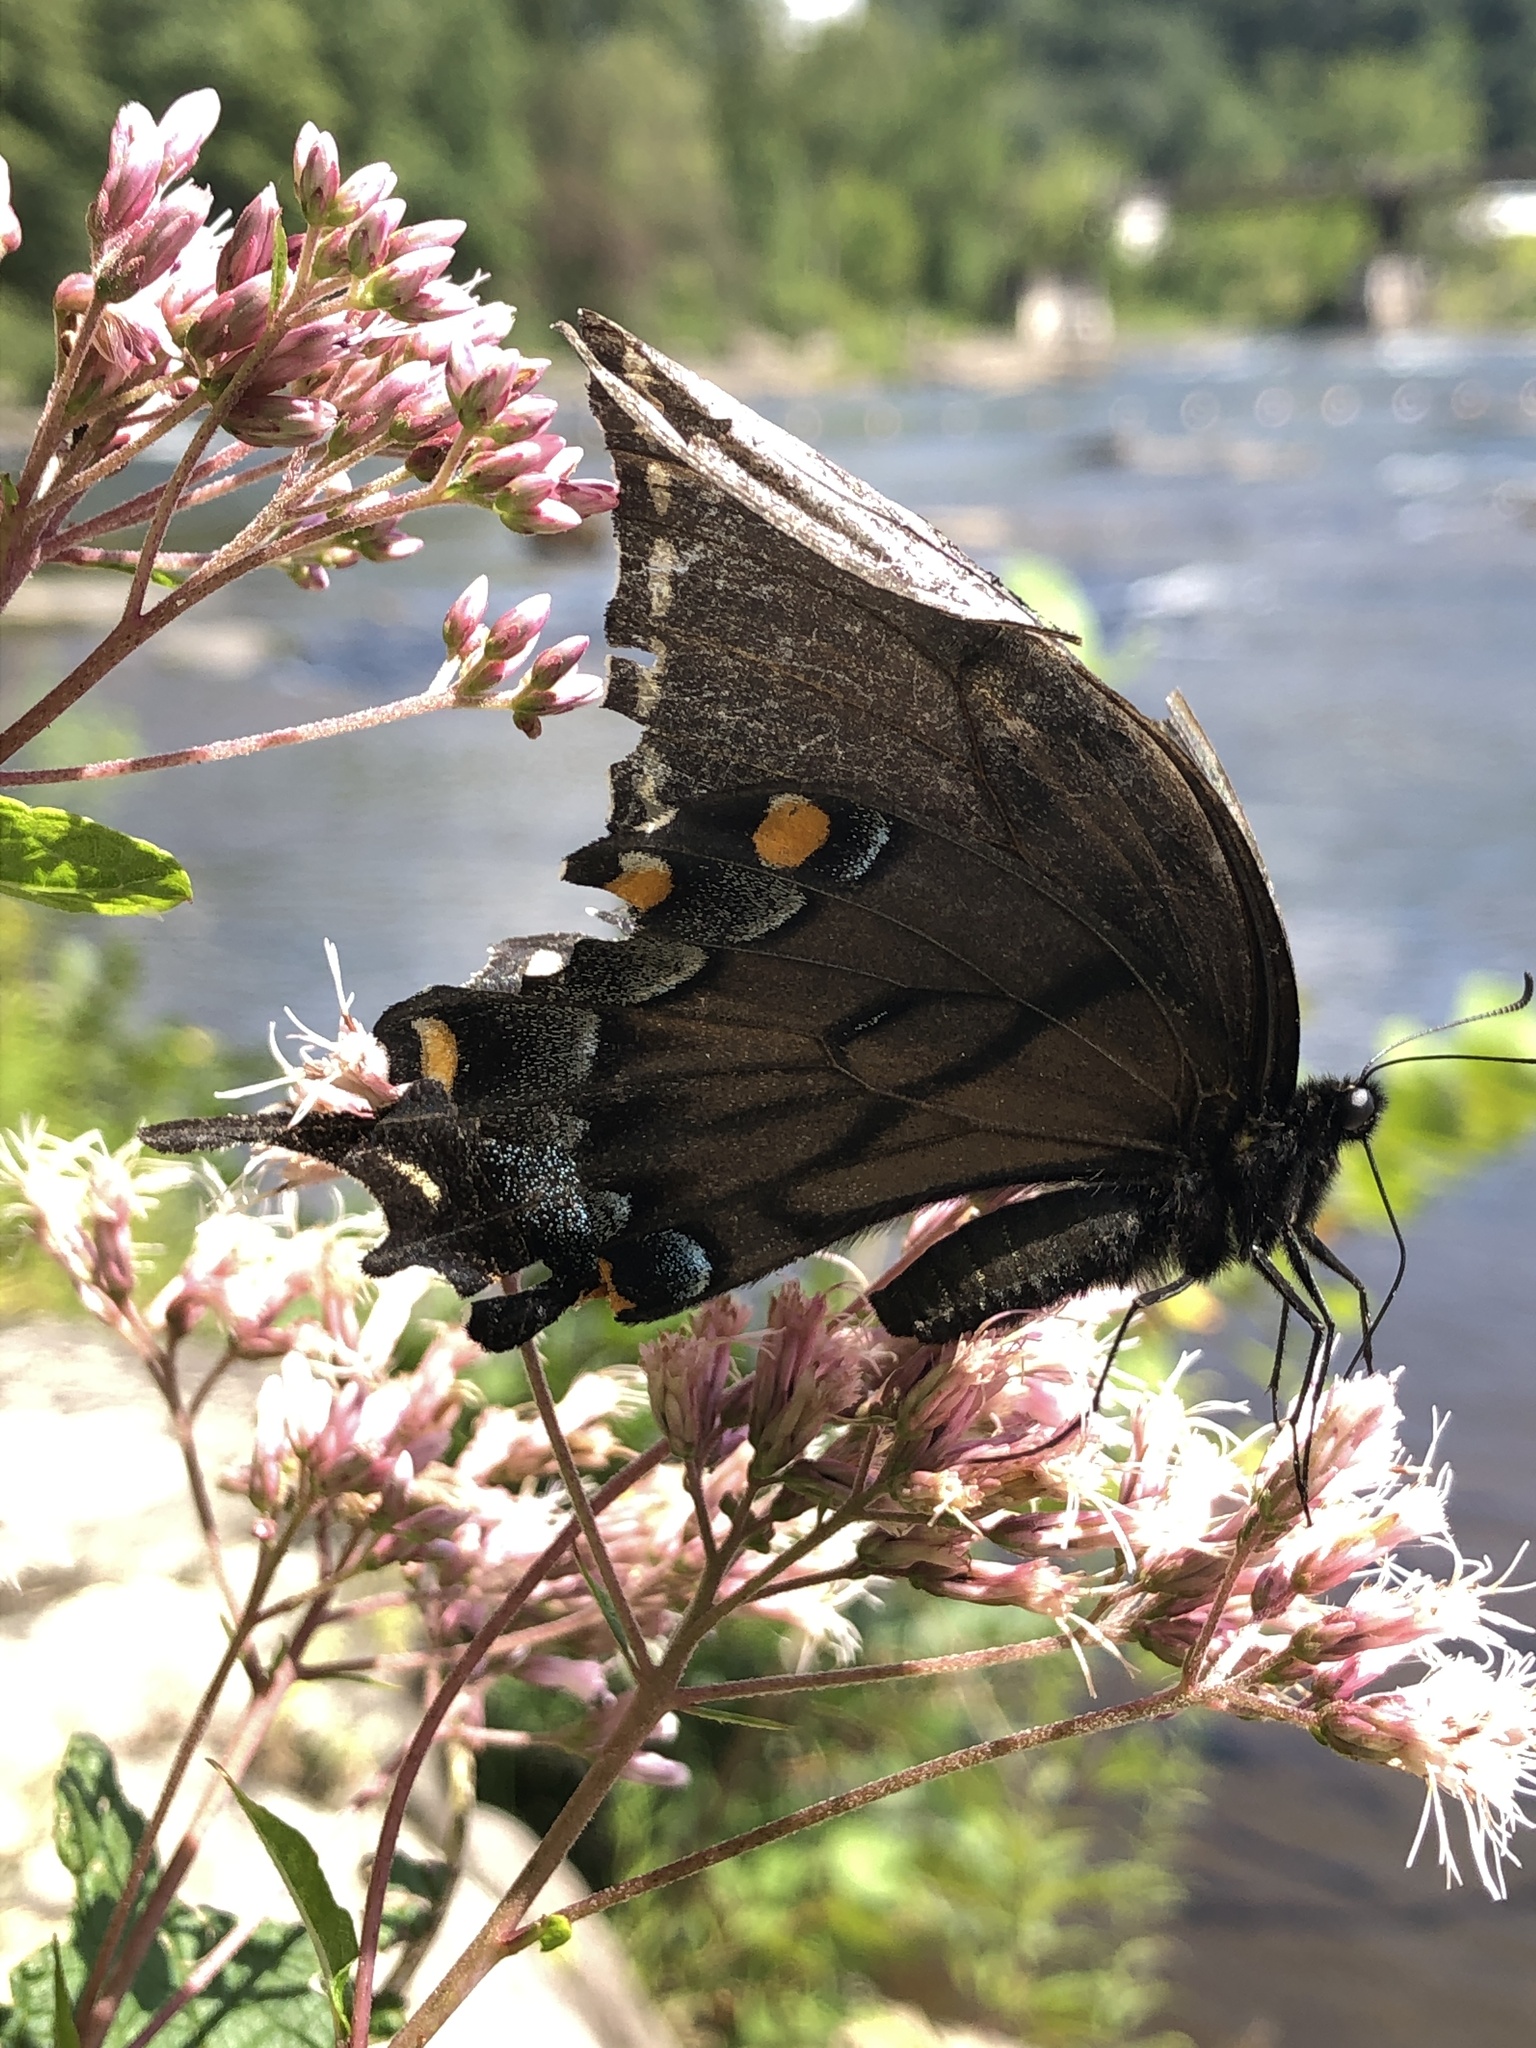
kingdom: Animalia
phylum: Arthropoda
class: Insecta
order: Lepidoptera
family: Papilionidae
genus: Papilio
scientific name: Papilio glaucus
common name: Tiger swallowtail
